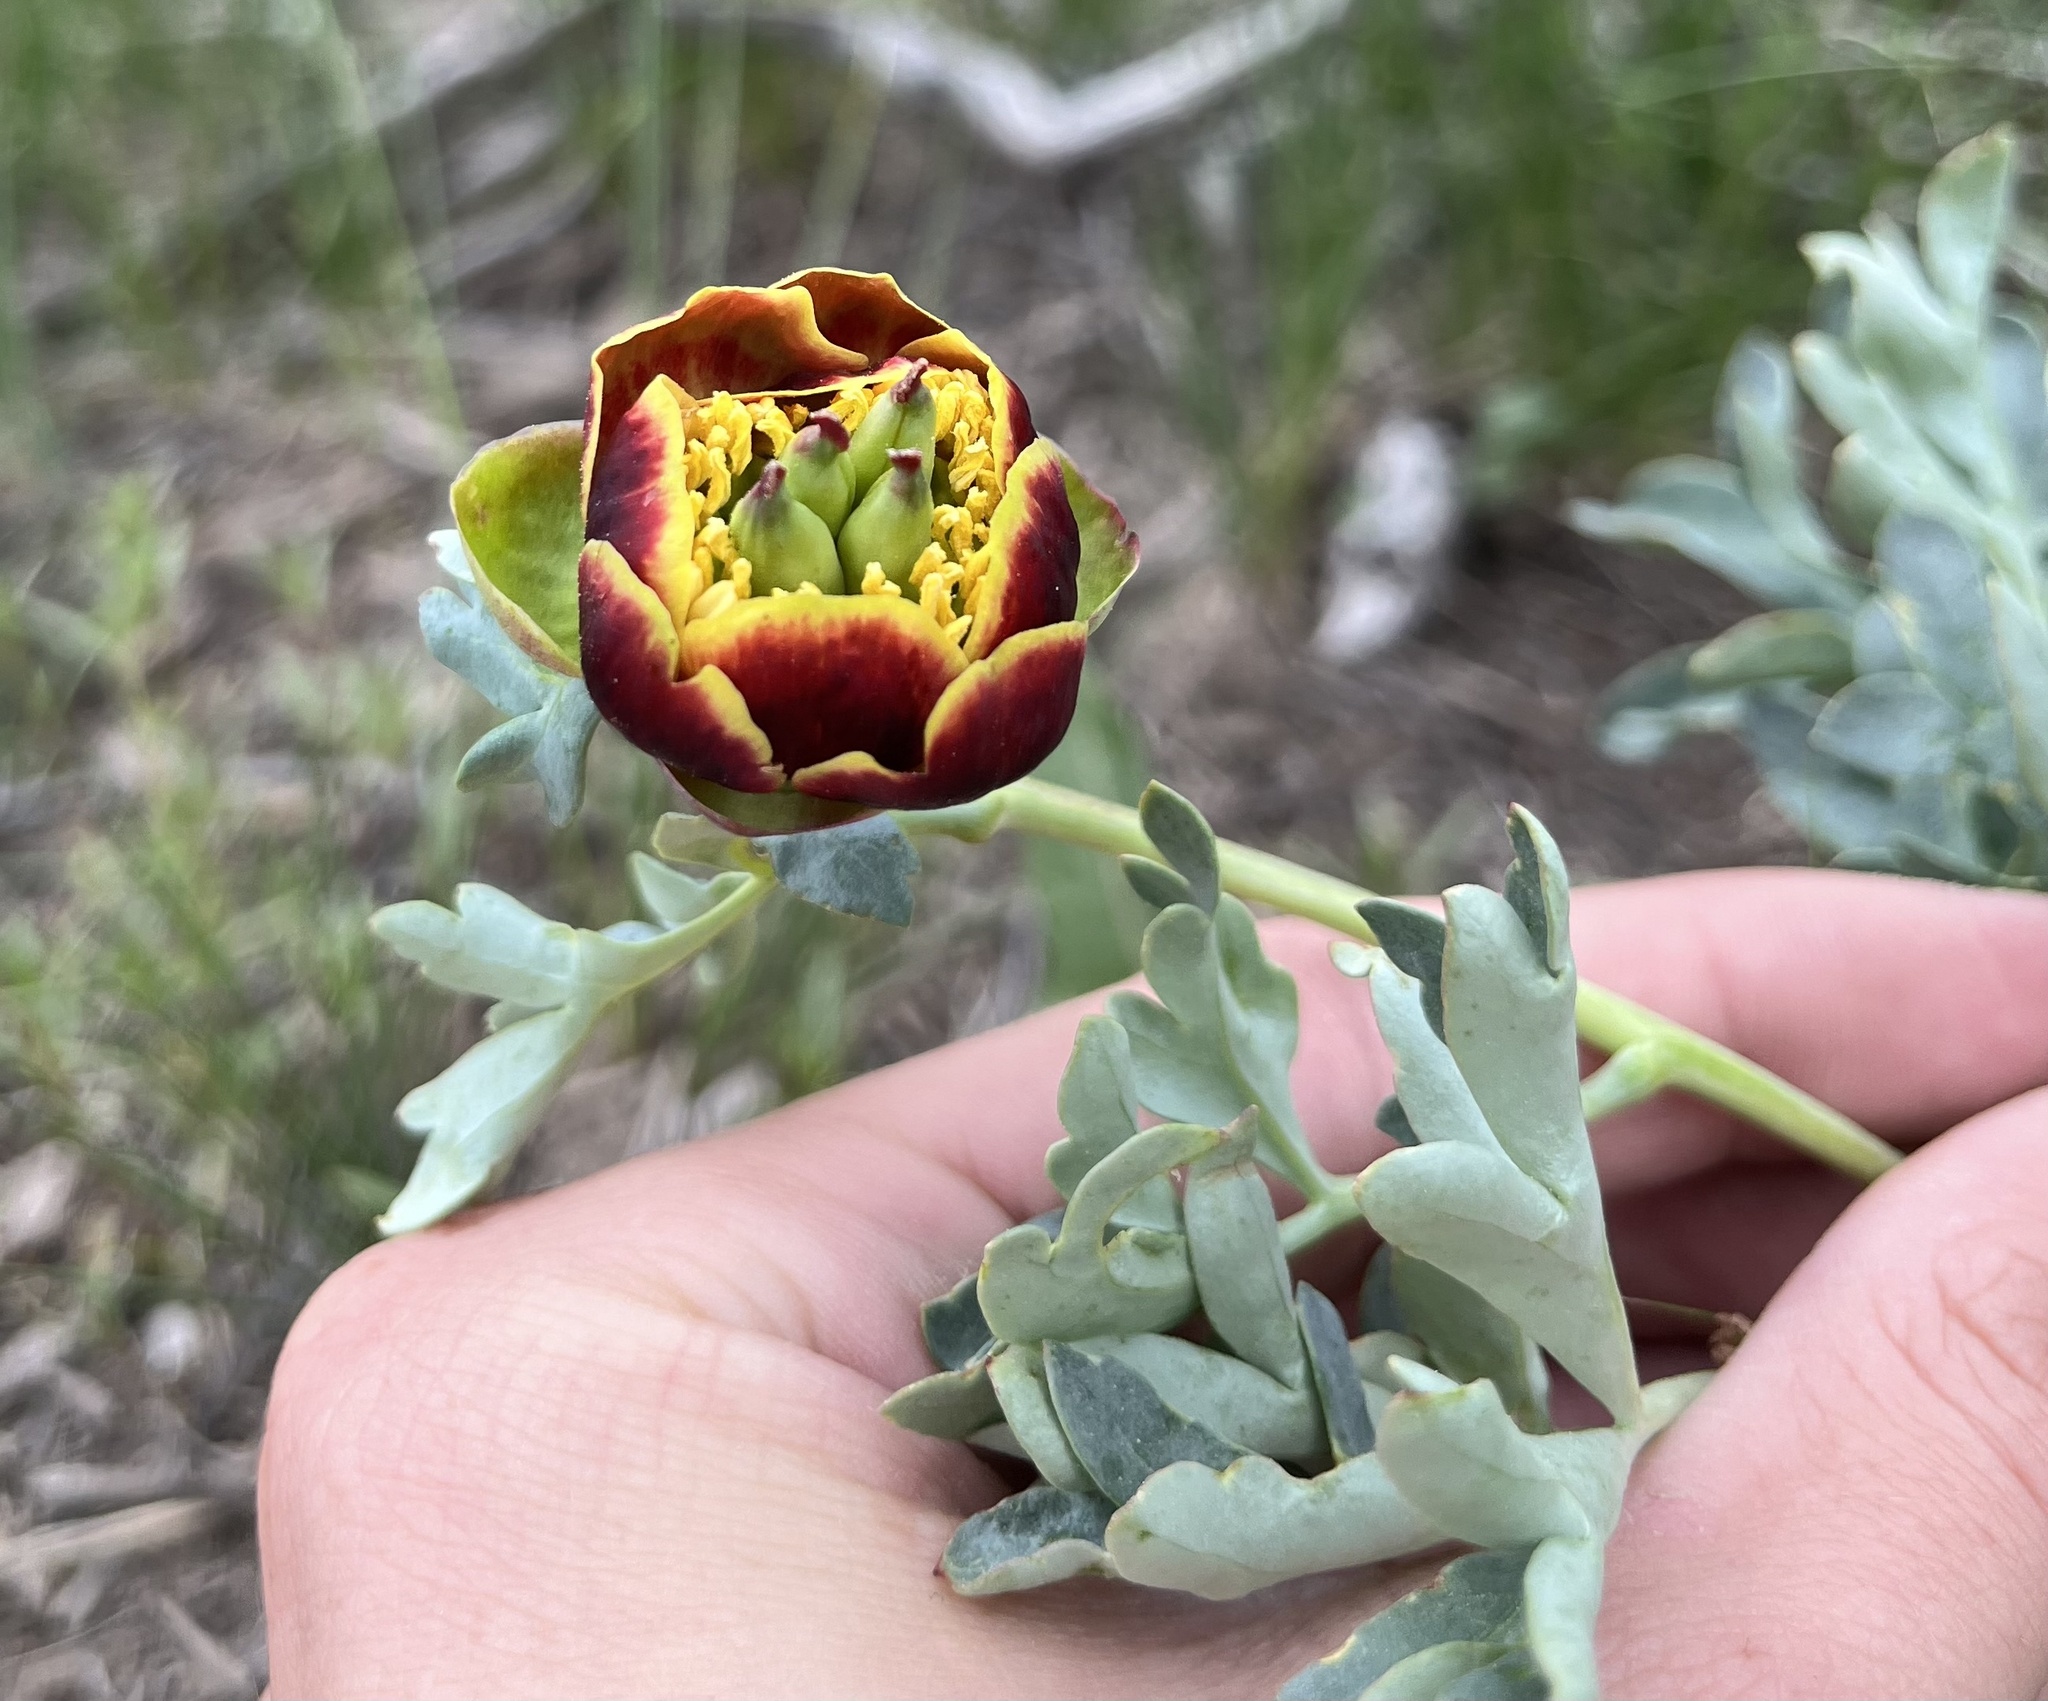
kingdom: Plantae
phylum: Tracheophyta
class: Magnoliopsida
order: Saxifragales
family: Paeoniaceae
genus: Paeonia
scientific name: Paeonia brownii
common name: Brown's peony
